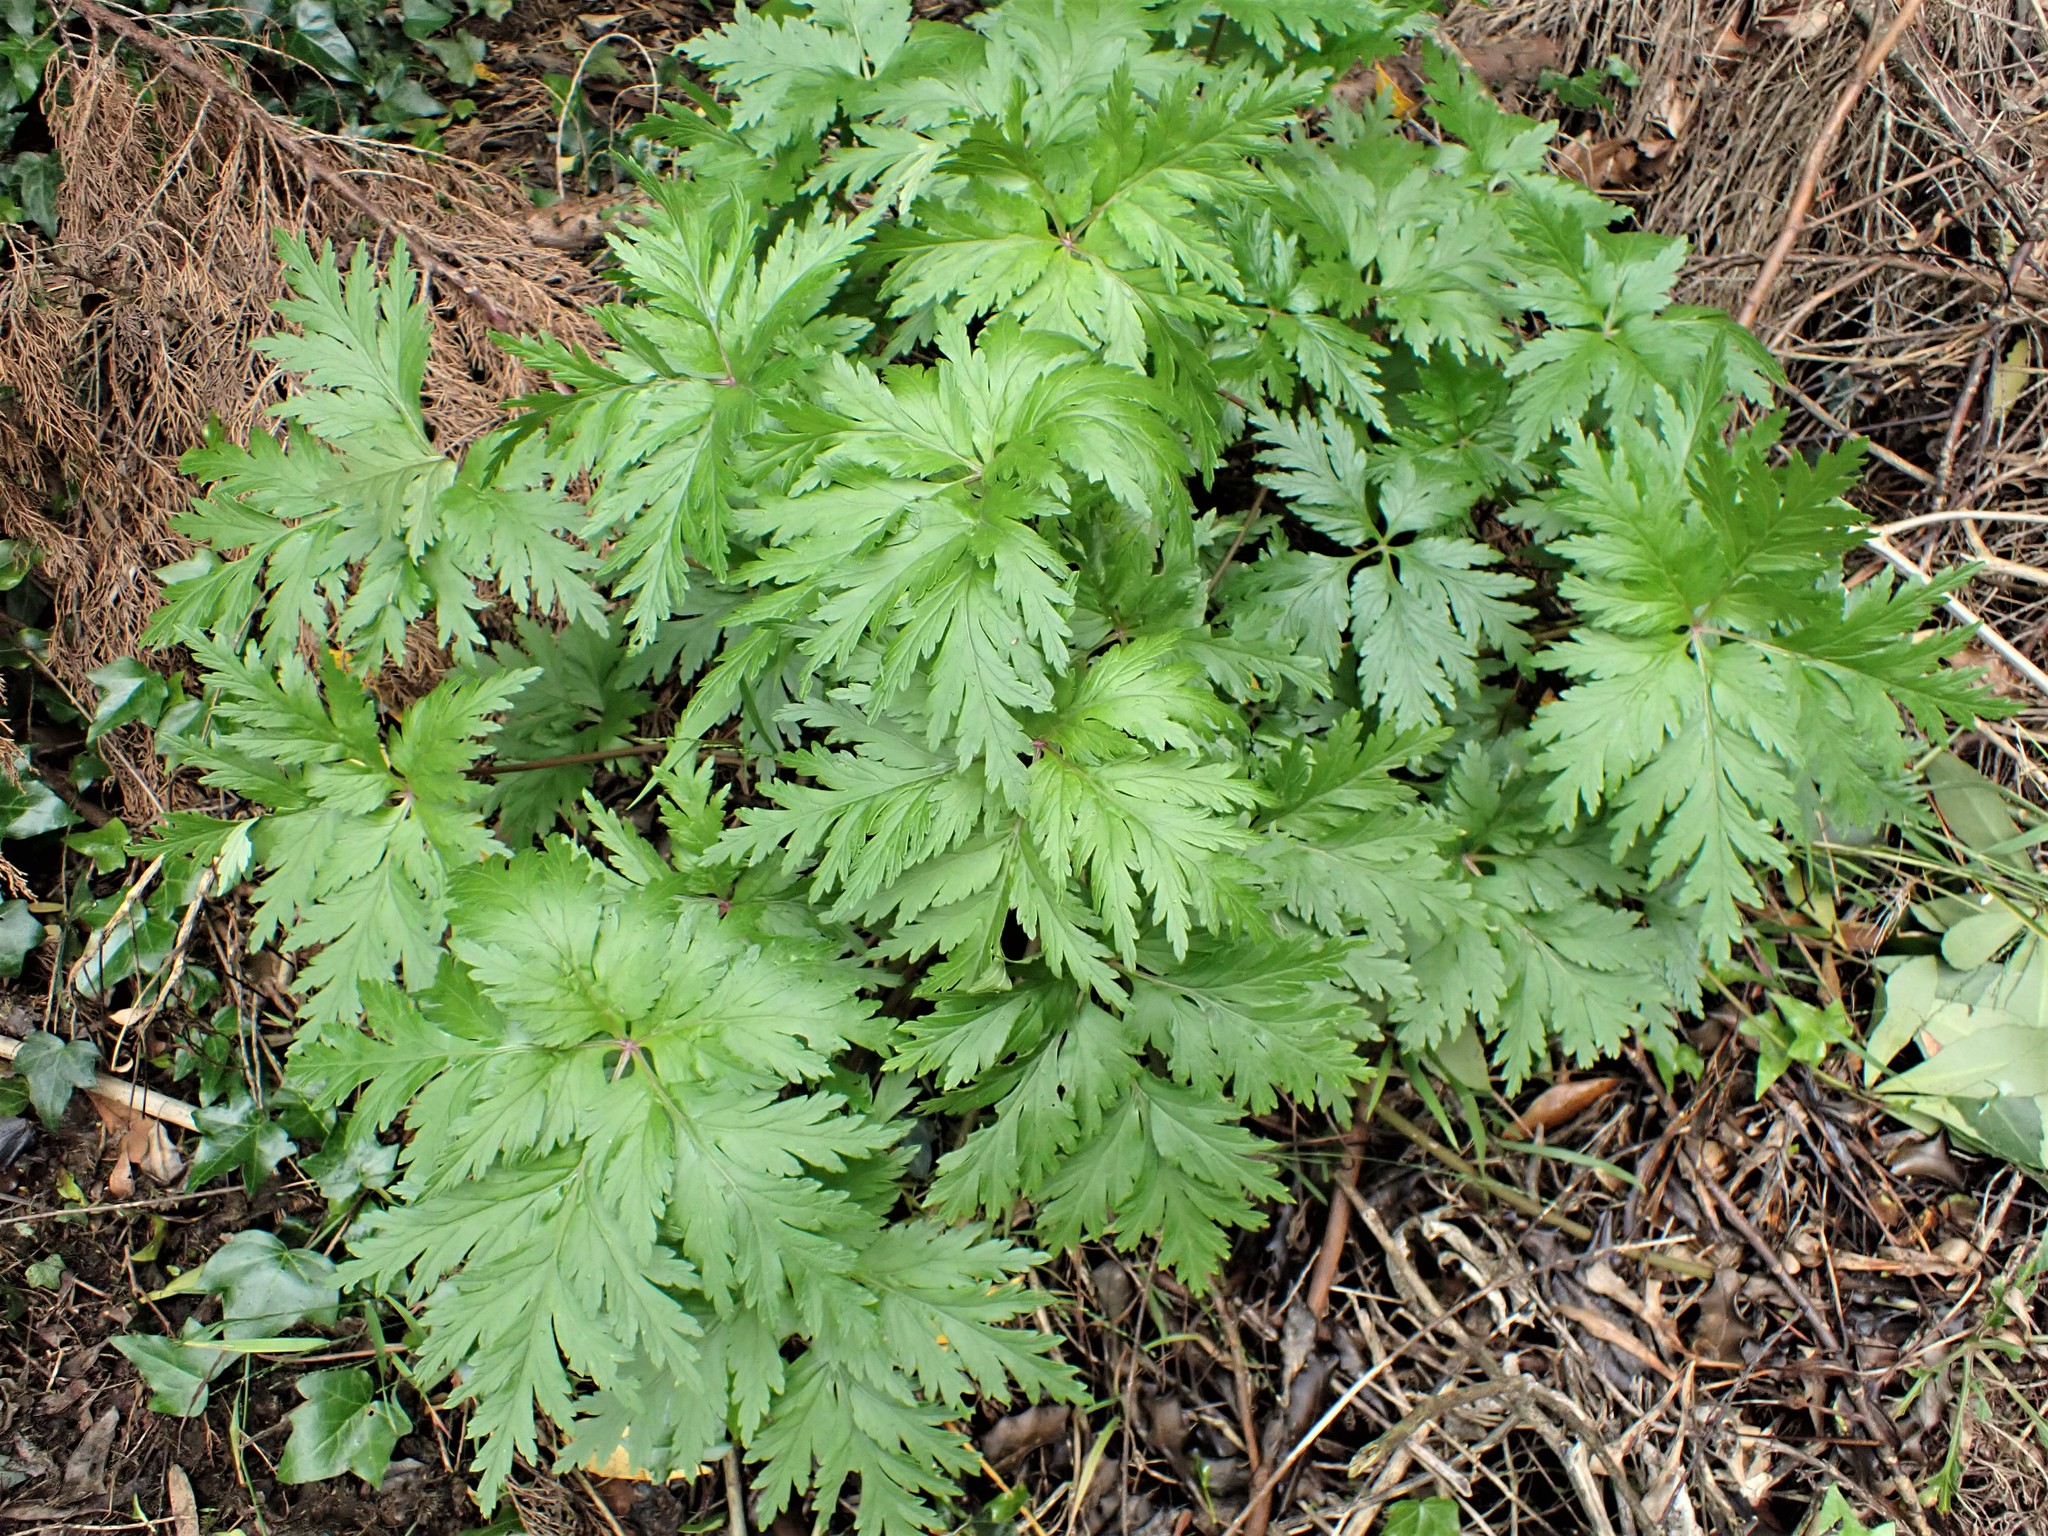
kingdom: Plantae
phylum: Tracheophyta
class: Magnoliopsida
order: Geraniales
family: Geraniaceae
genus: Geranium
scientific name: Geranium maderense
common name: Giant herb-robert
